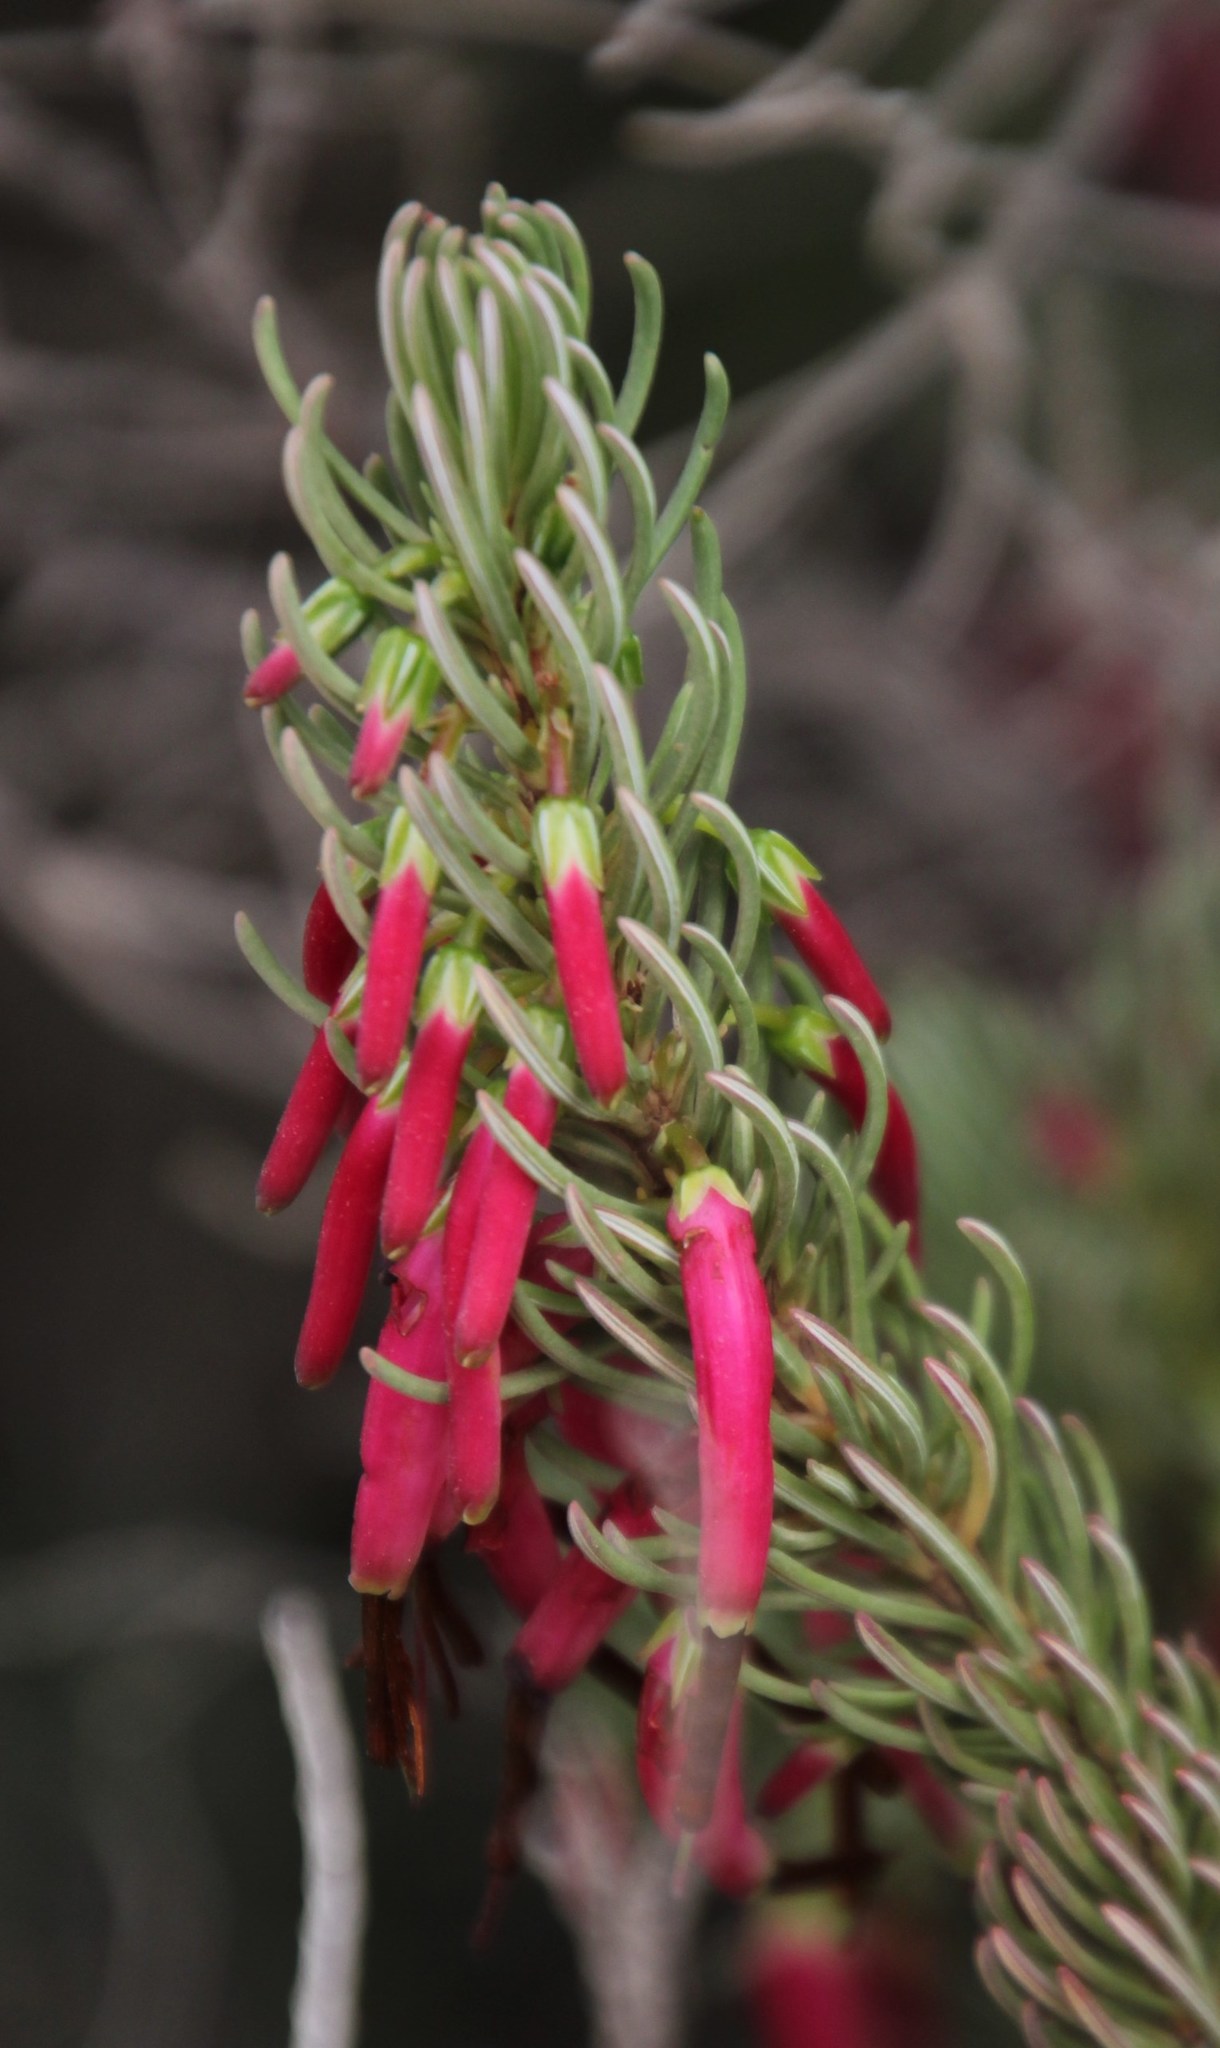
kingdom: Plantae
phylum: Tracheophyta
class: Magnoliopsida
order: Ericales
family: Ericaceae
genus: Erica
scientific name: Erica plukenetii
